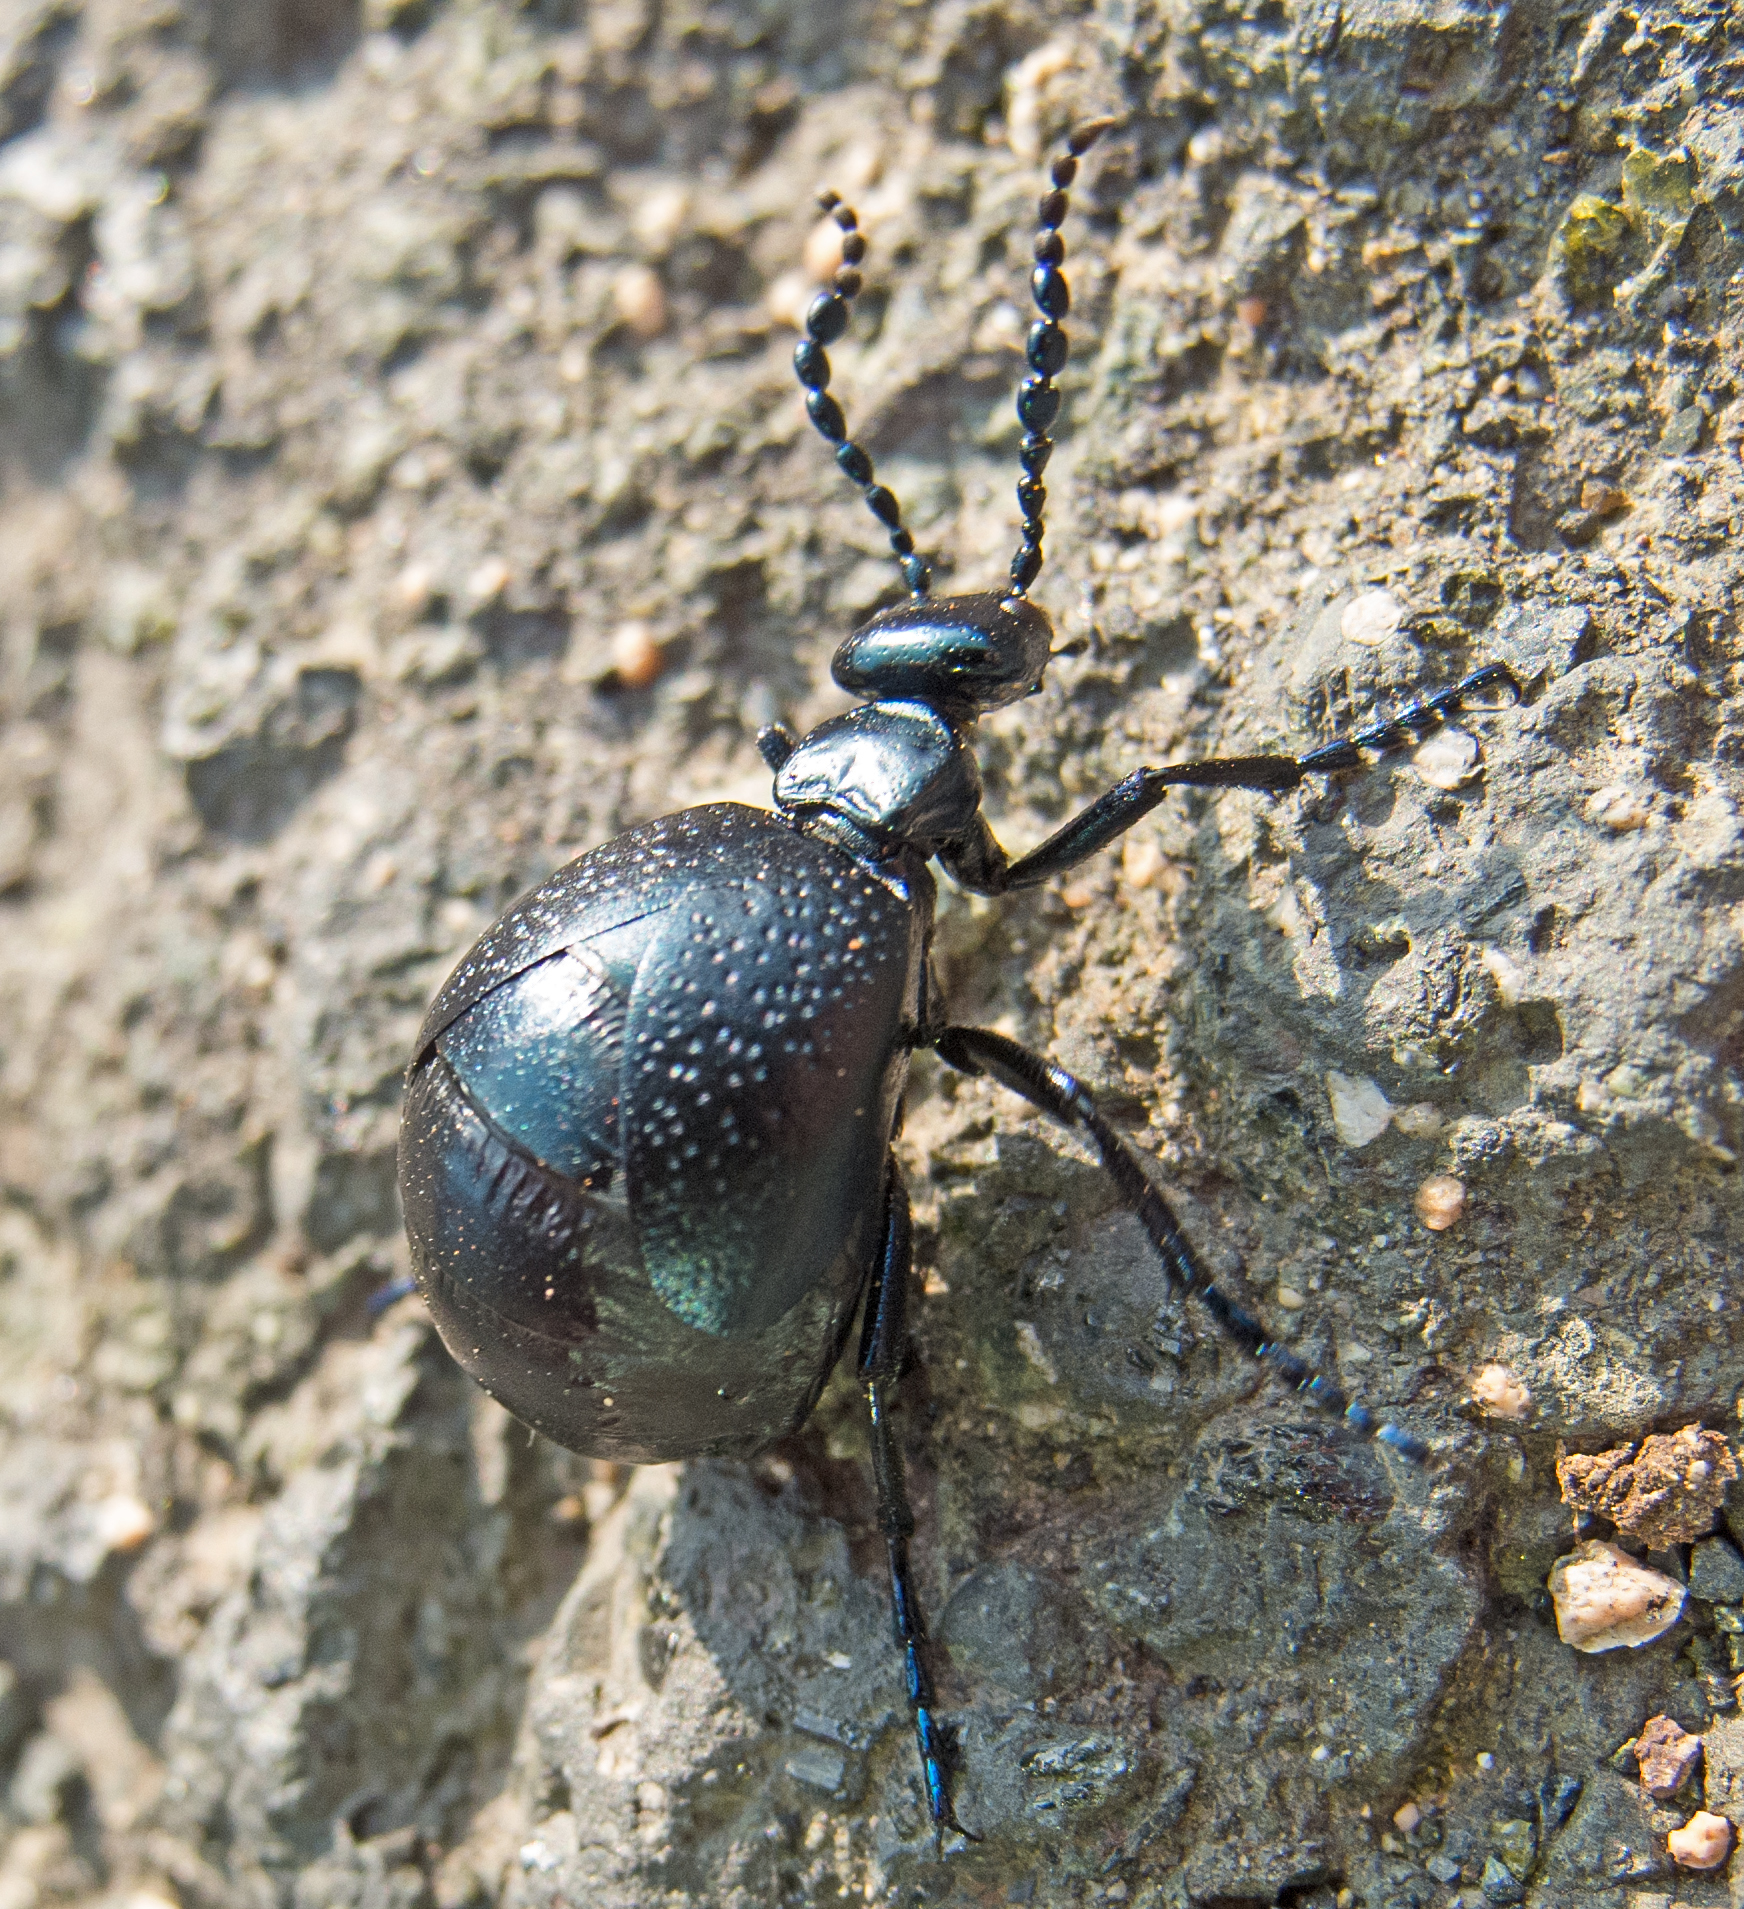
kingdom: Animalia
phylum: Arthropoda
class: Insecta
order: Coleoptera
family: Meloidae
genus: Meloe
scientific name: Meloe autumnalis
